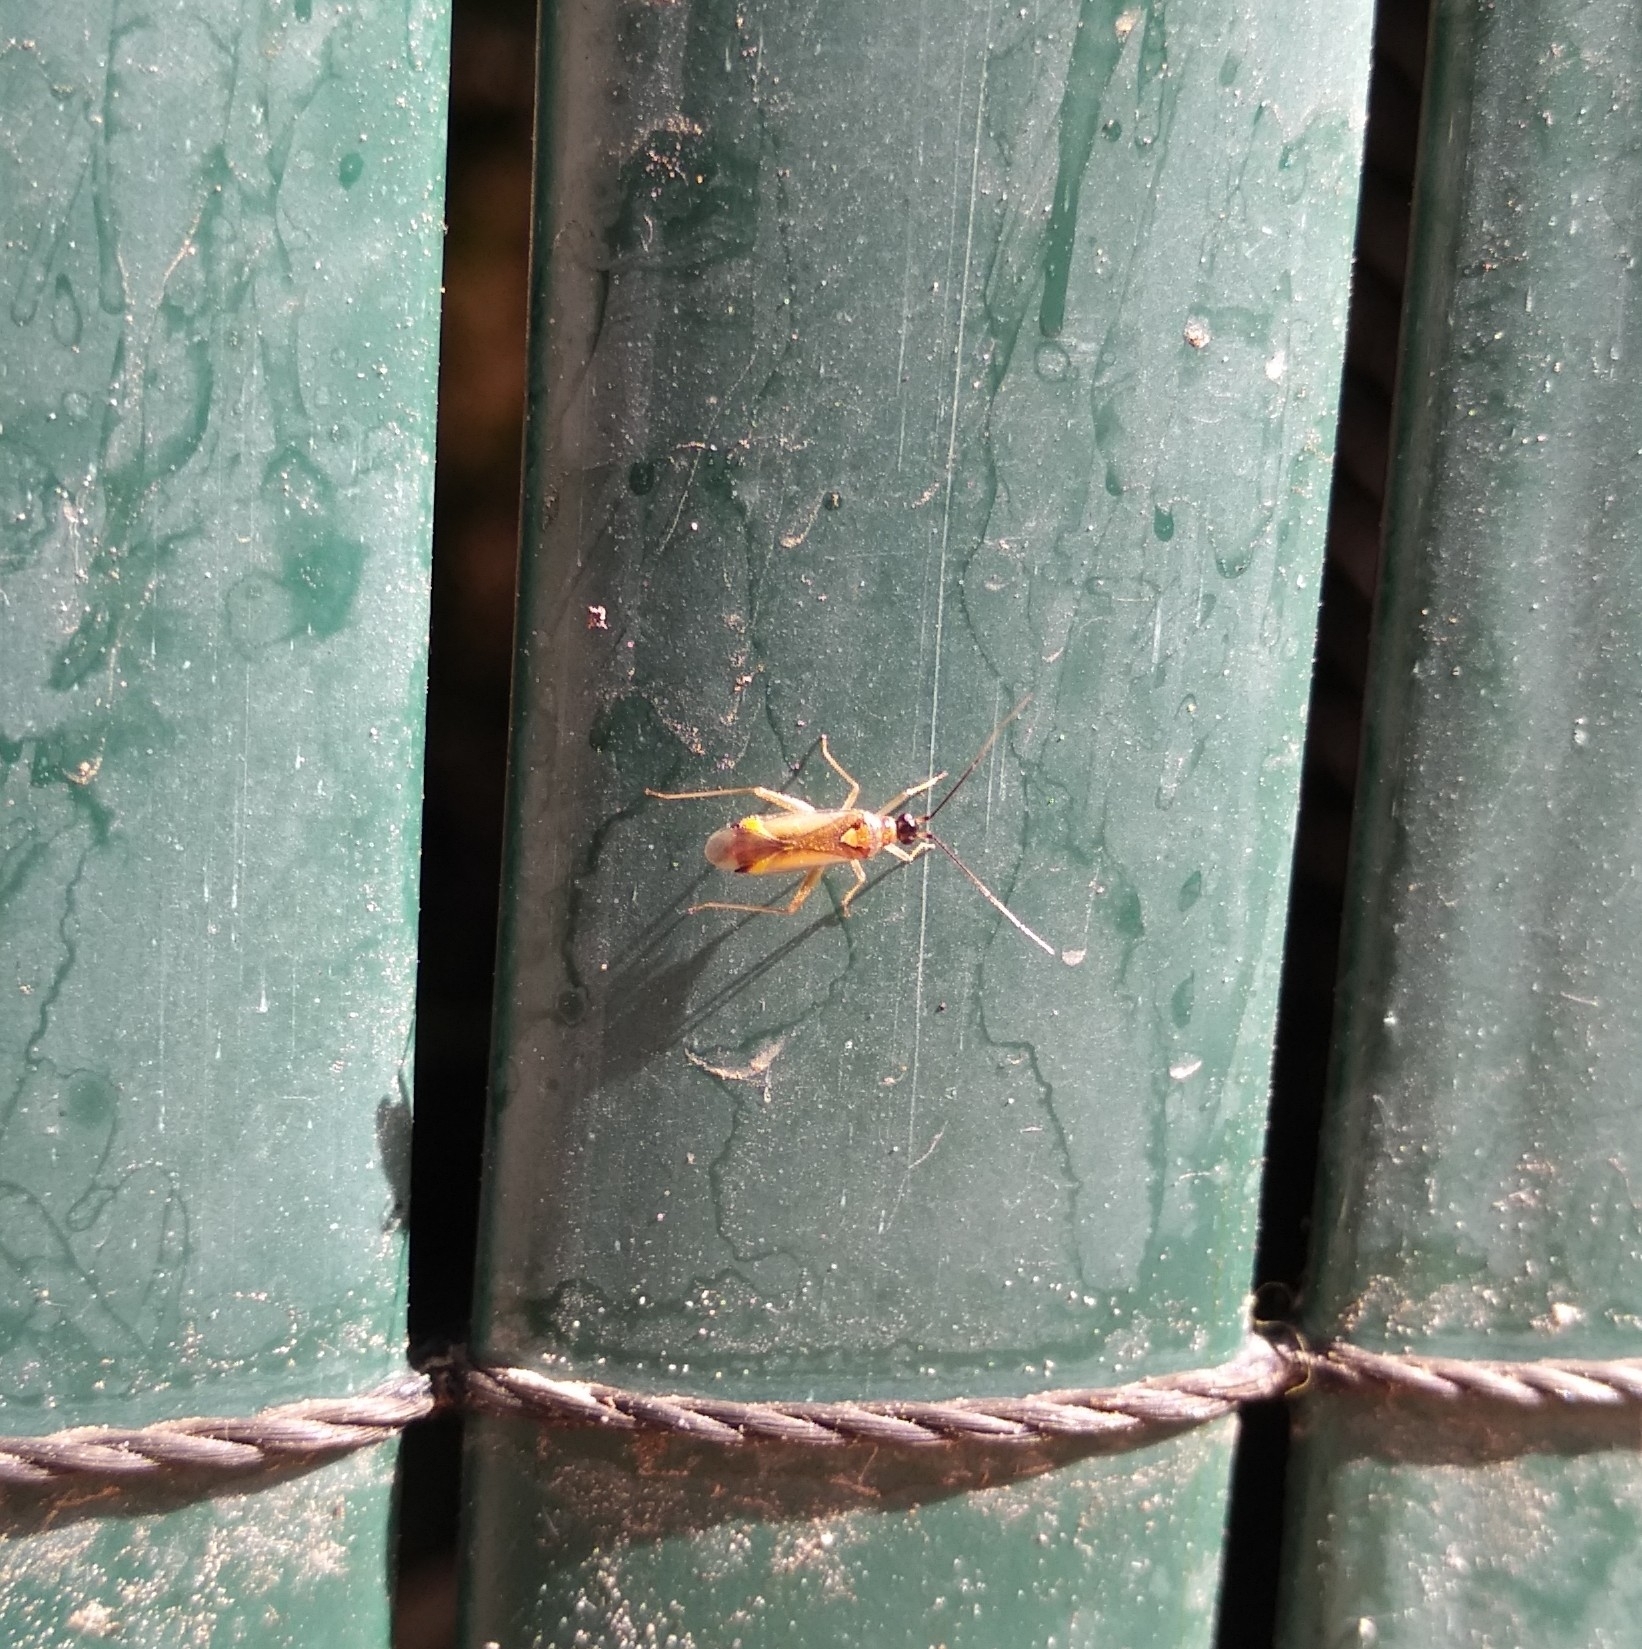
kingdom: Animalia
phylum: Arthropoda
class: Insecta
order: Hemiptera
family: Miridae
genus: Campyloneura
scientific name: Campyloneura virgula
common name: Predatory bug
